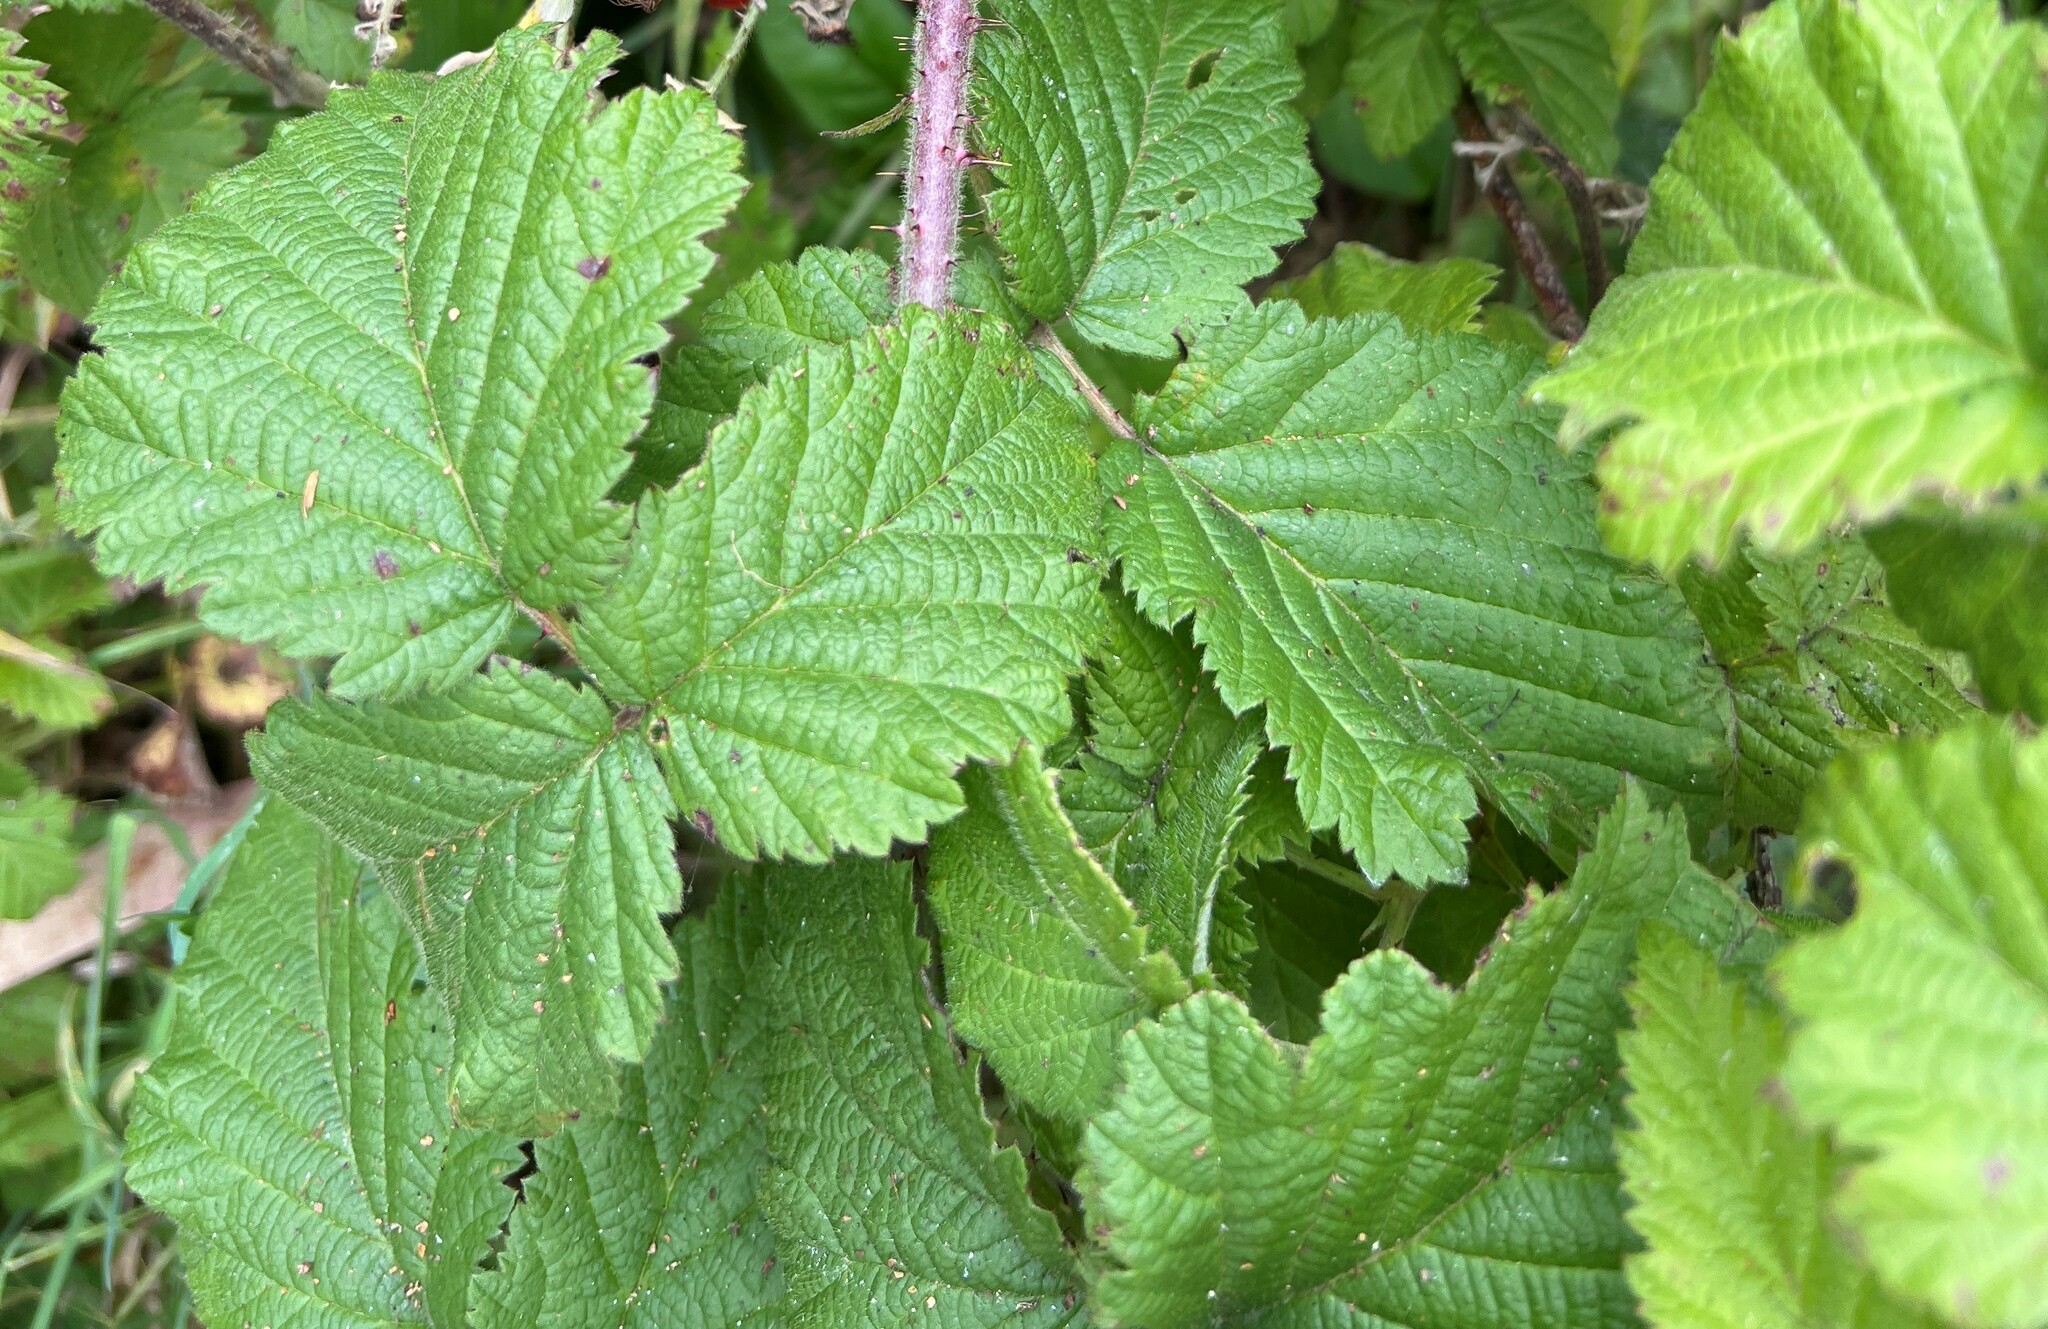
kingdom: Plantae
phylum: Tracheophyta
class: Magnoliopsida
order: Rosales
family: Rosaceae
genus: Rubus
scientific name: Rubus ursinus
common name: Pacific blackberry
